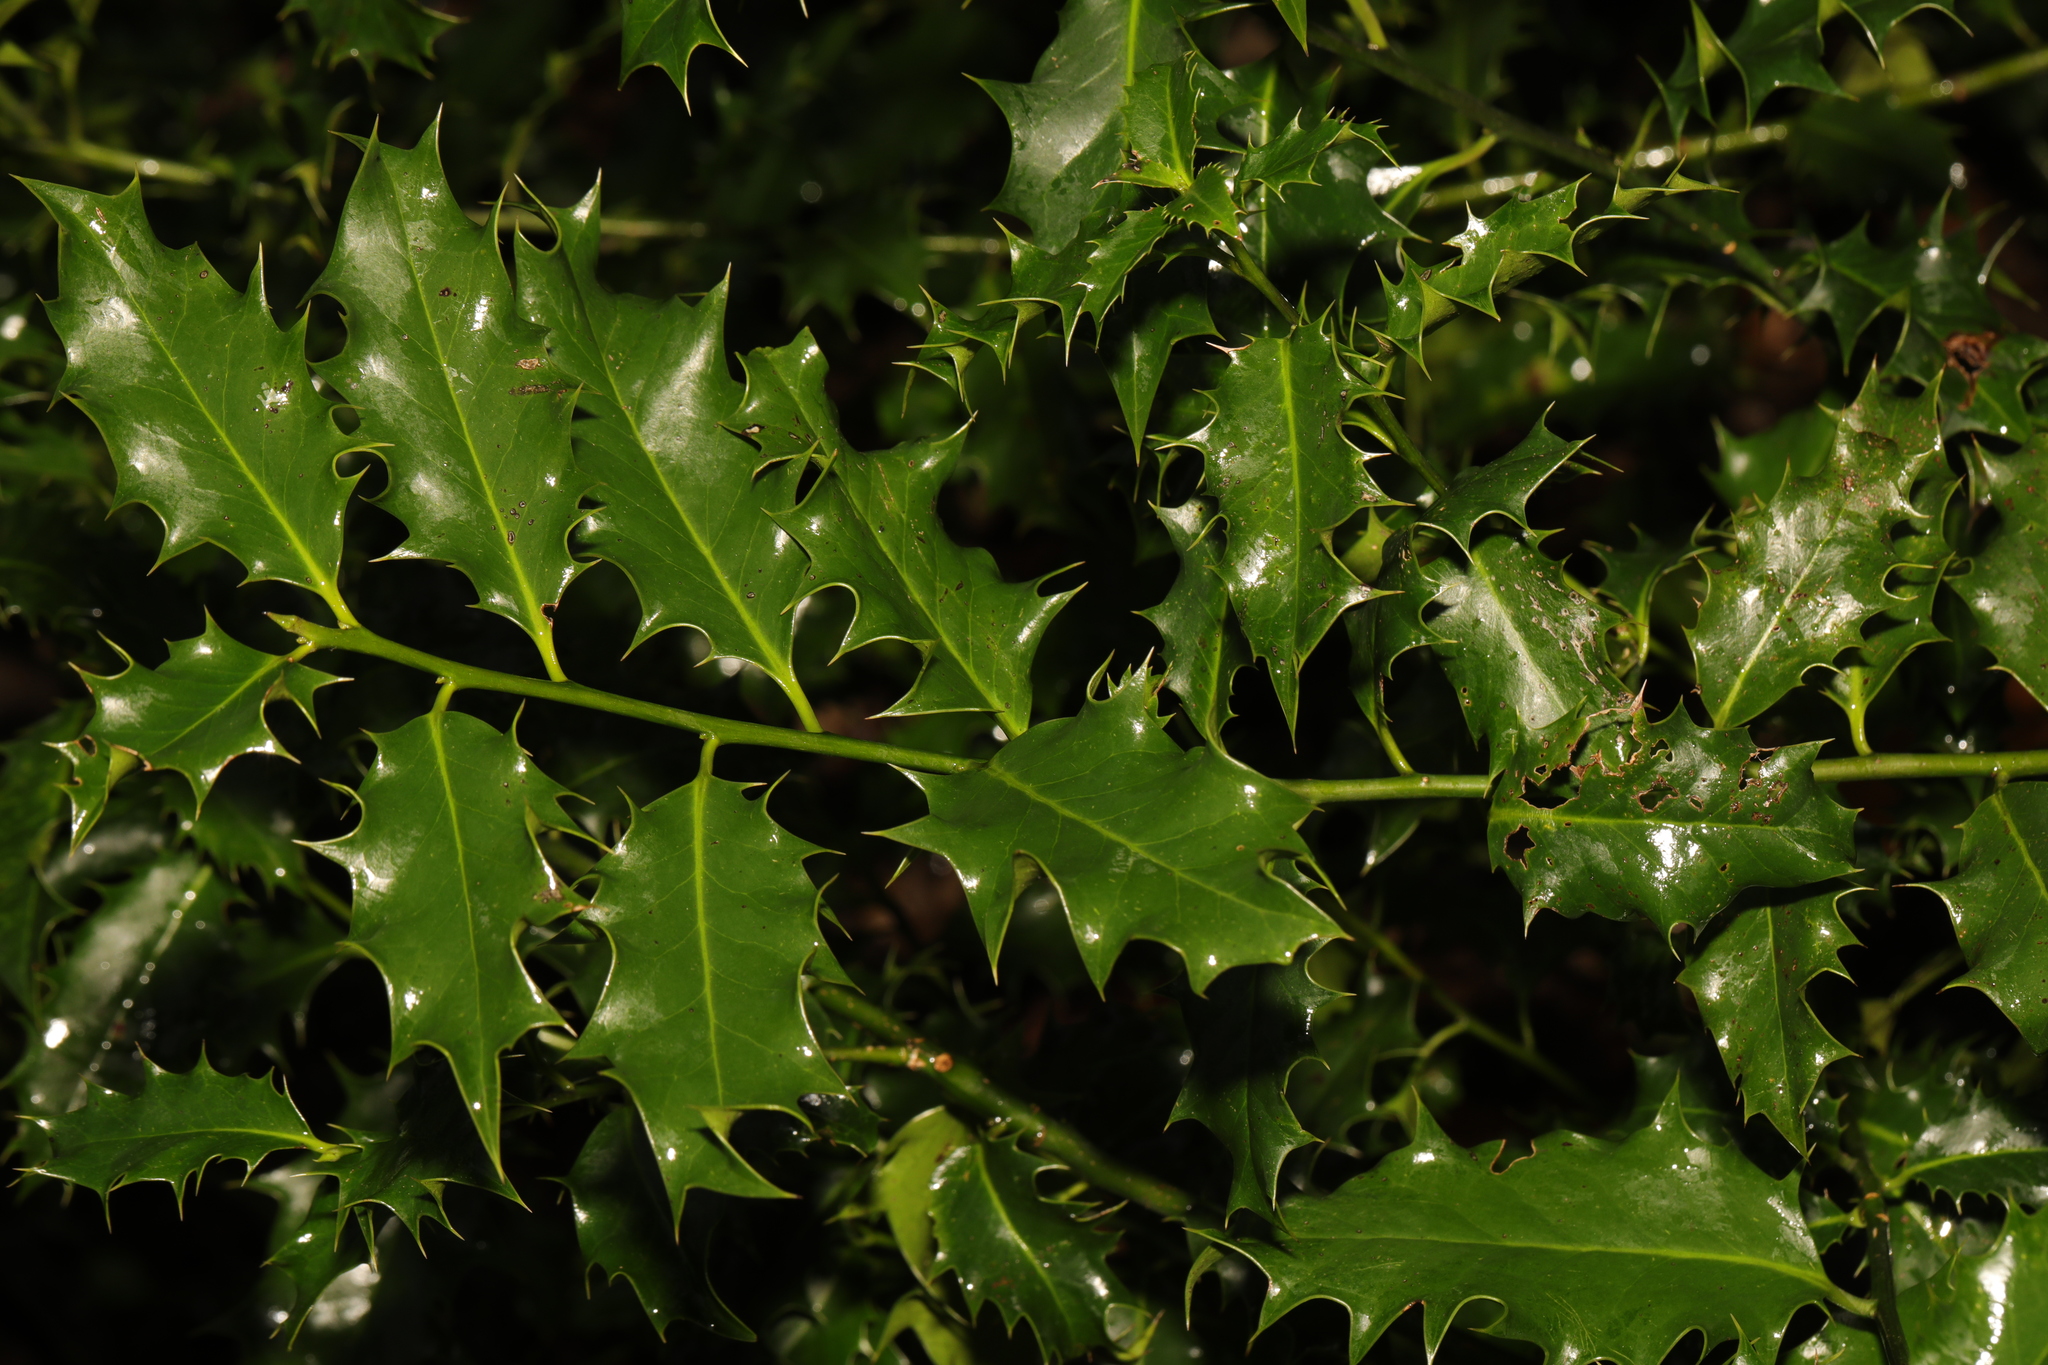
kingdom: Plantae
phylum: Tracheophyta
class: Magnoliopsida
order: Aquifoliales
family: Aquifoliaceae
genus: Ilex
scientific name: Ilex aquifolium
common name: English holly
